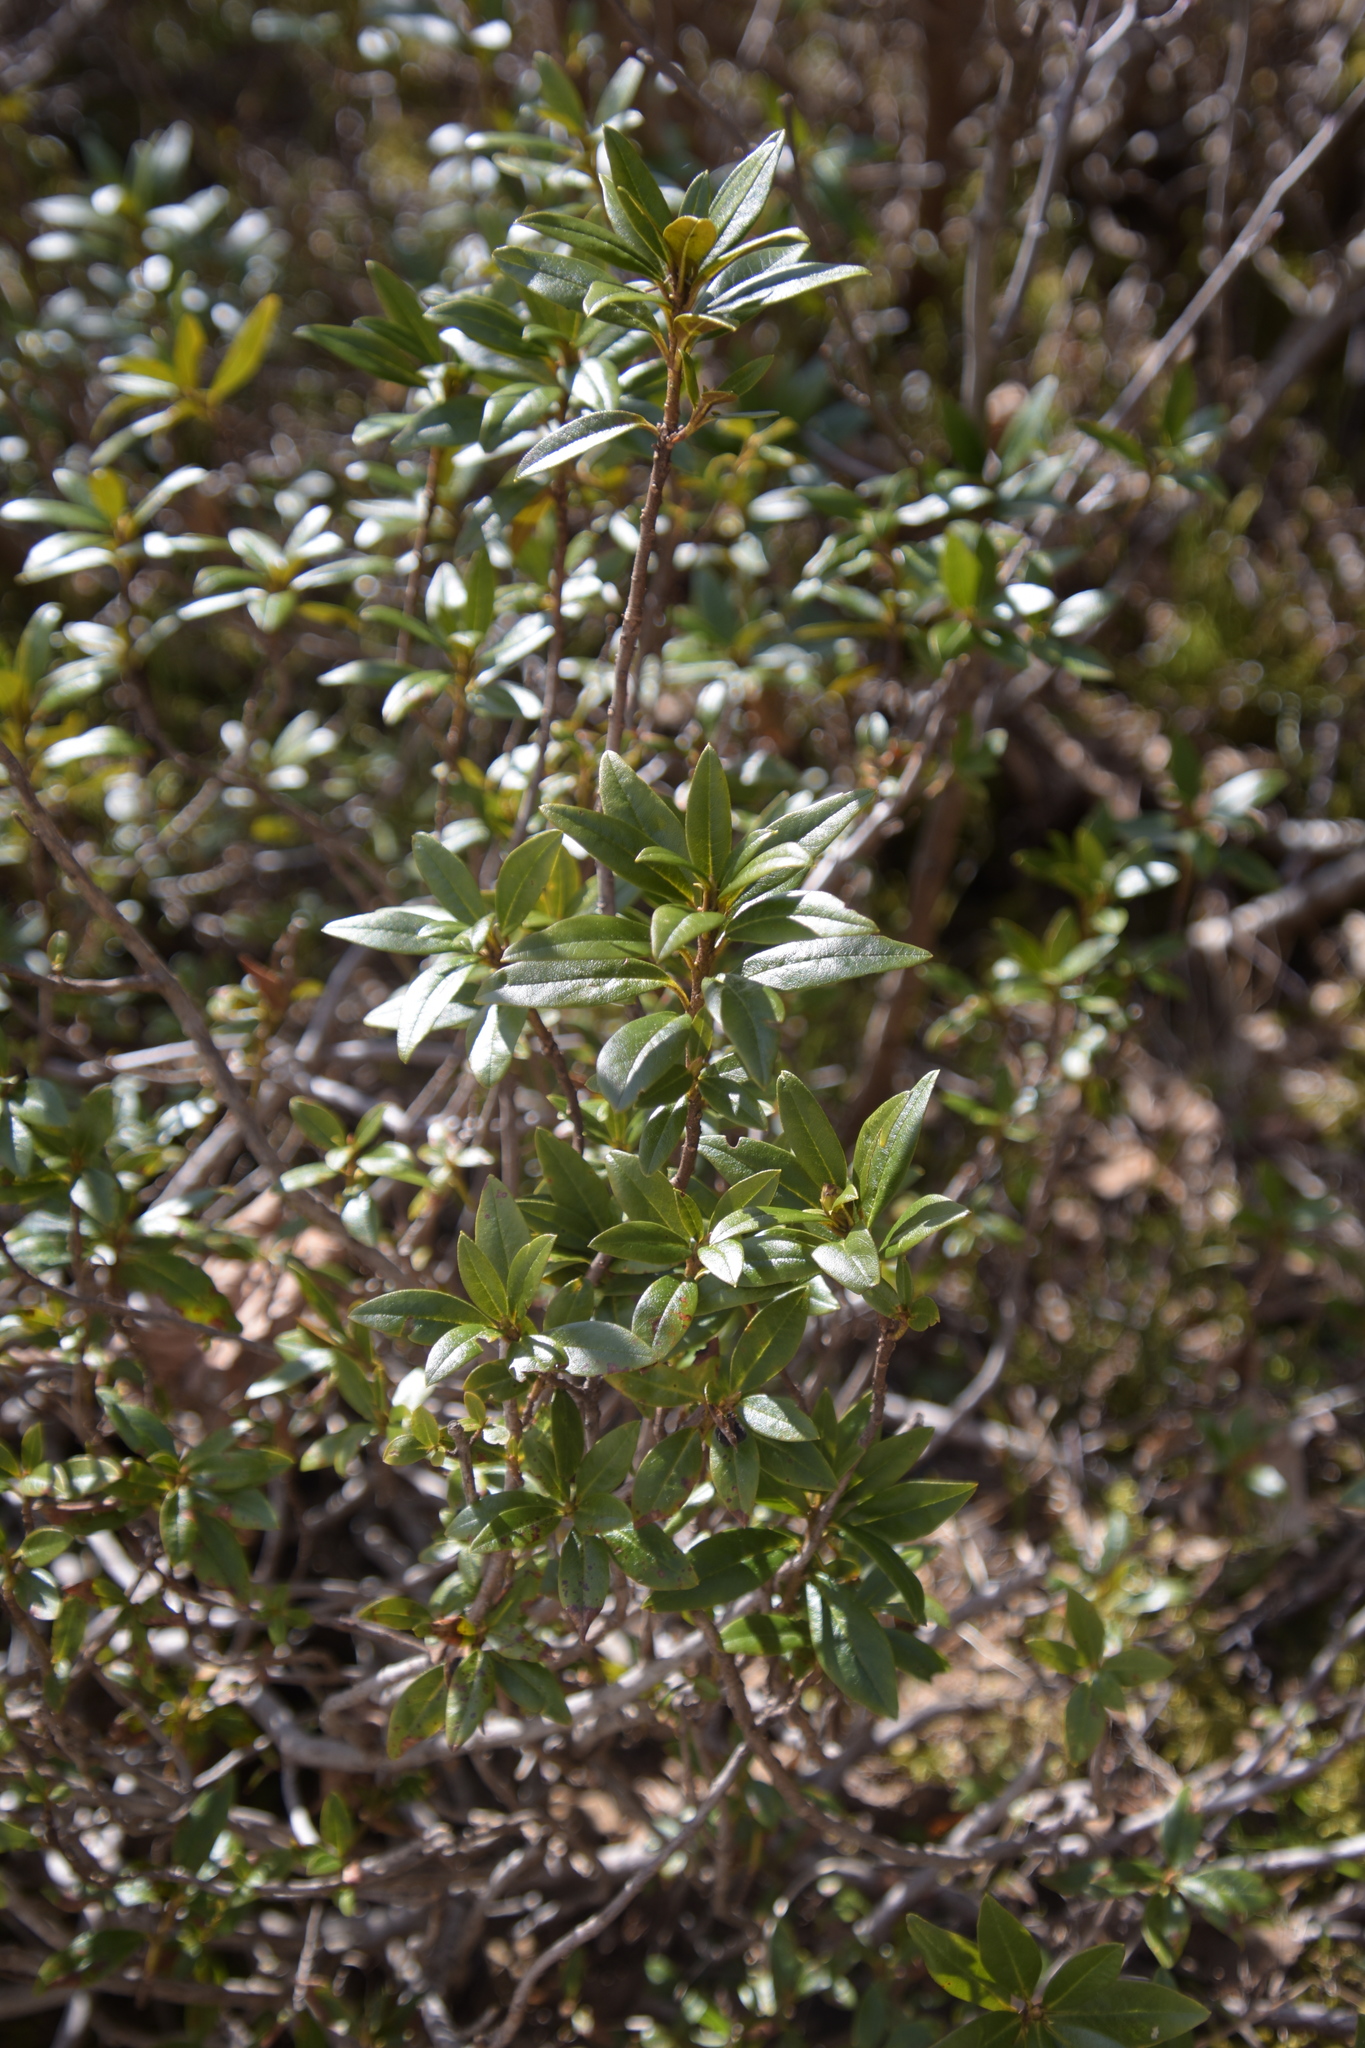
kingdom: Plantae
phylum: Tracheophyta
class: Magnoliopsida
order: Ericales
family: Ericaceae
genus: Rhododendron
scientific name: Rhododendron ferrugineum
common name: Alpenrose
